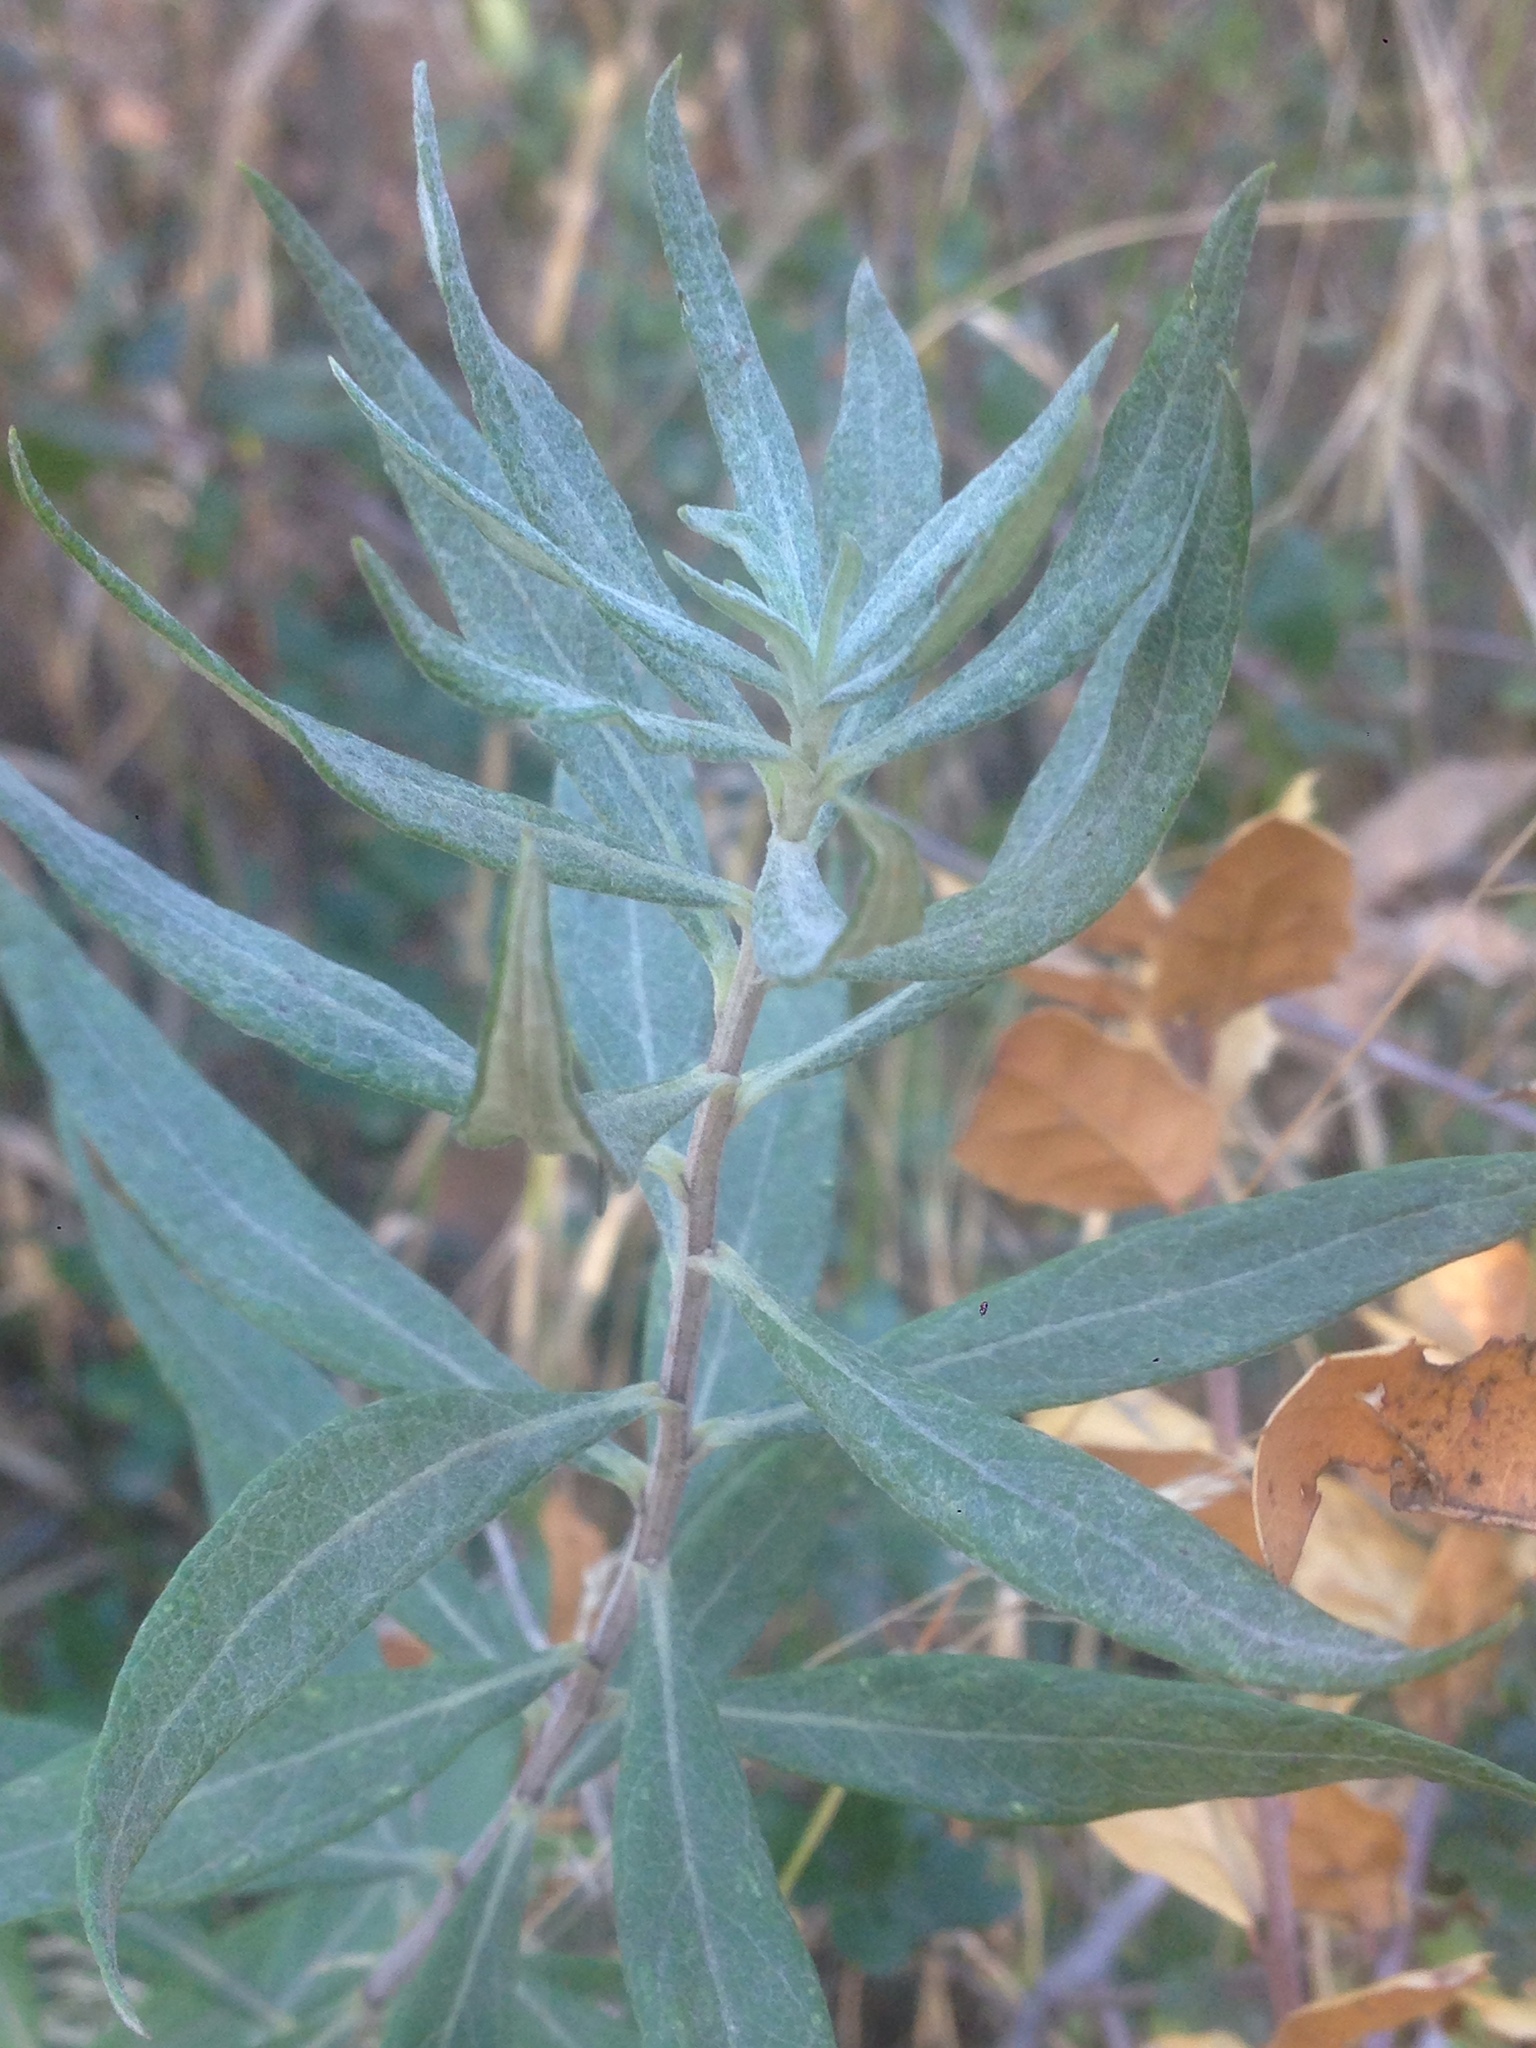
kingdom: Plantae
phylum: Tracheophyta
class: Magnoliopsida
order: Asterales
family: Asteraceae
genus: Artemisia
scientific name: Artemisia douglasiana
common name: Northwest mugwort
